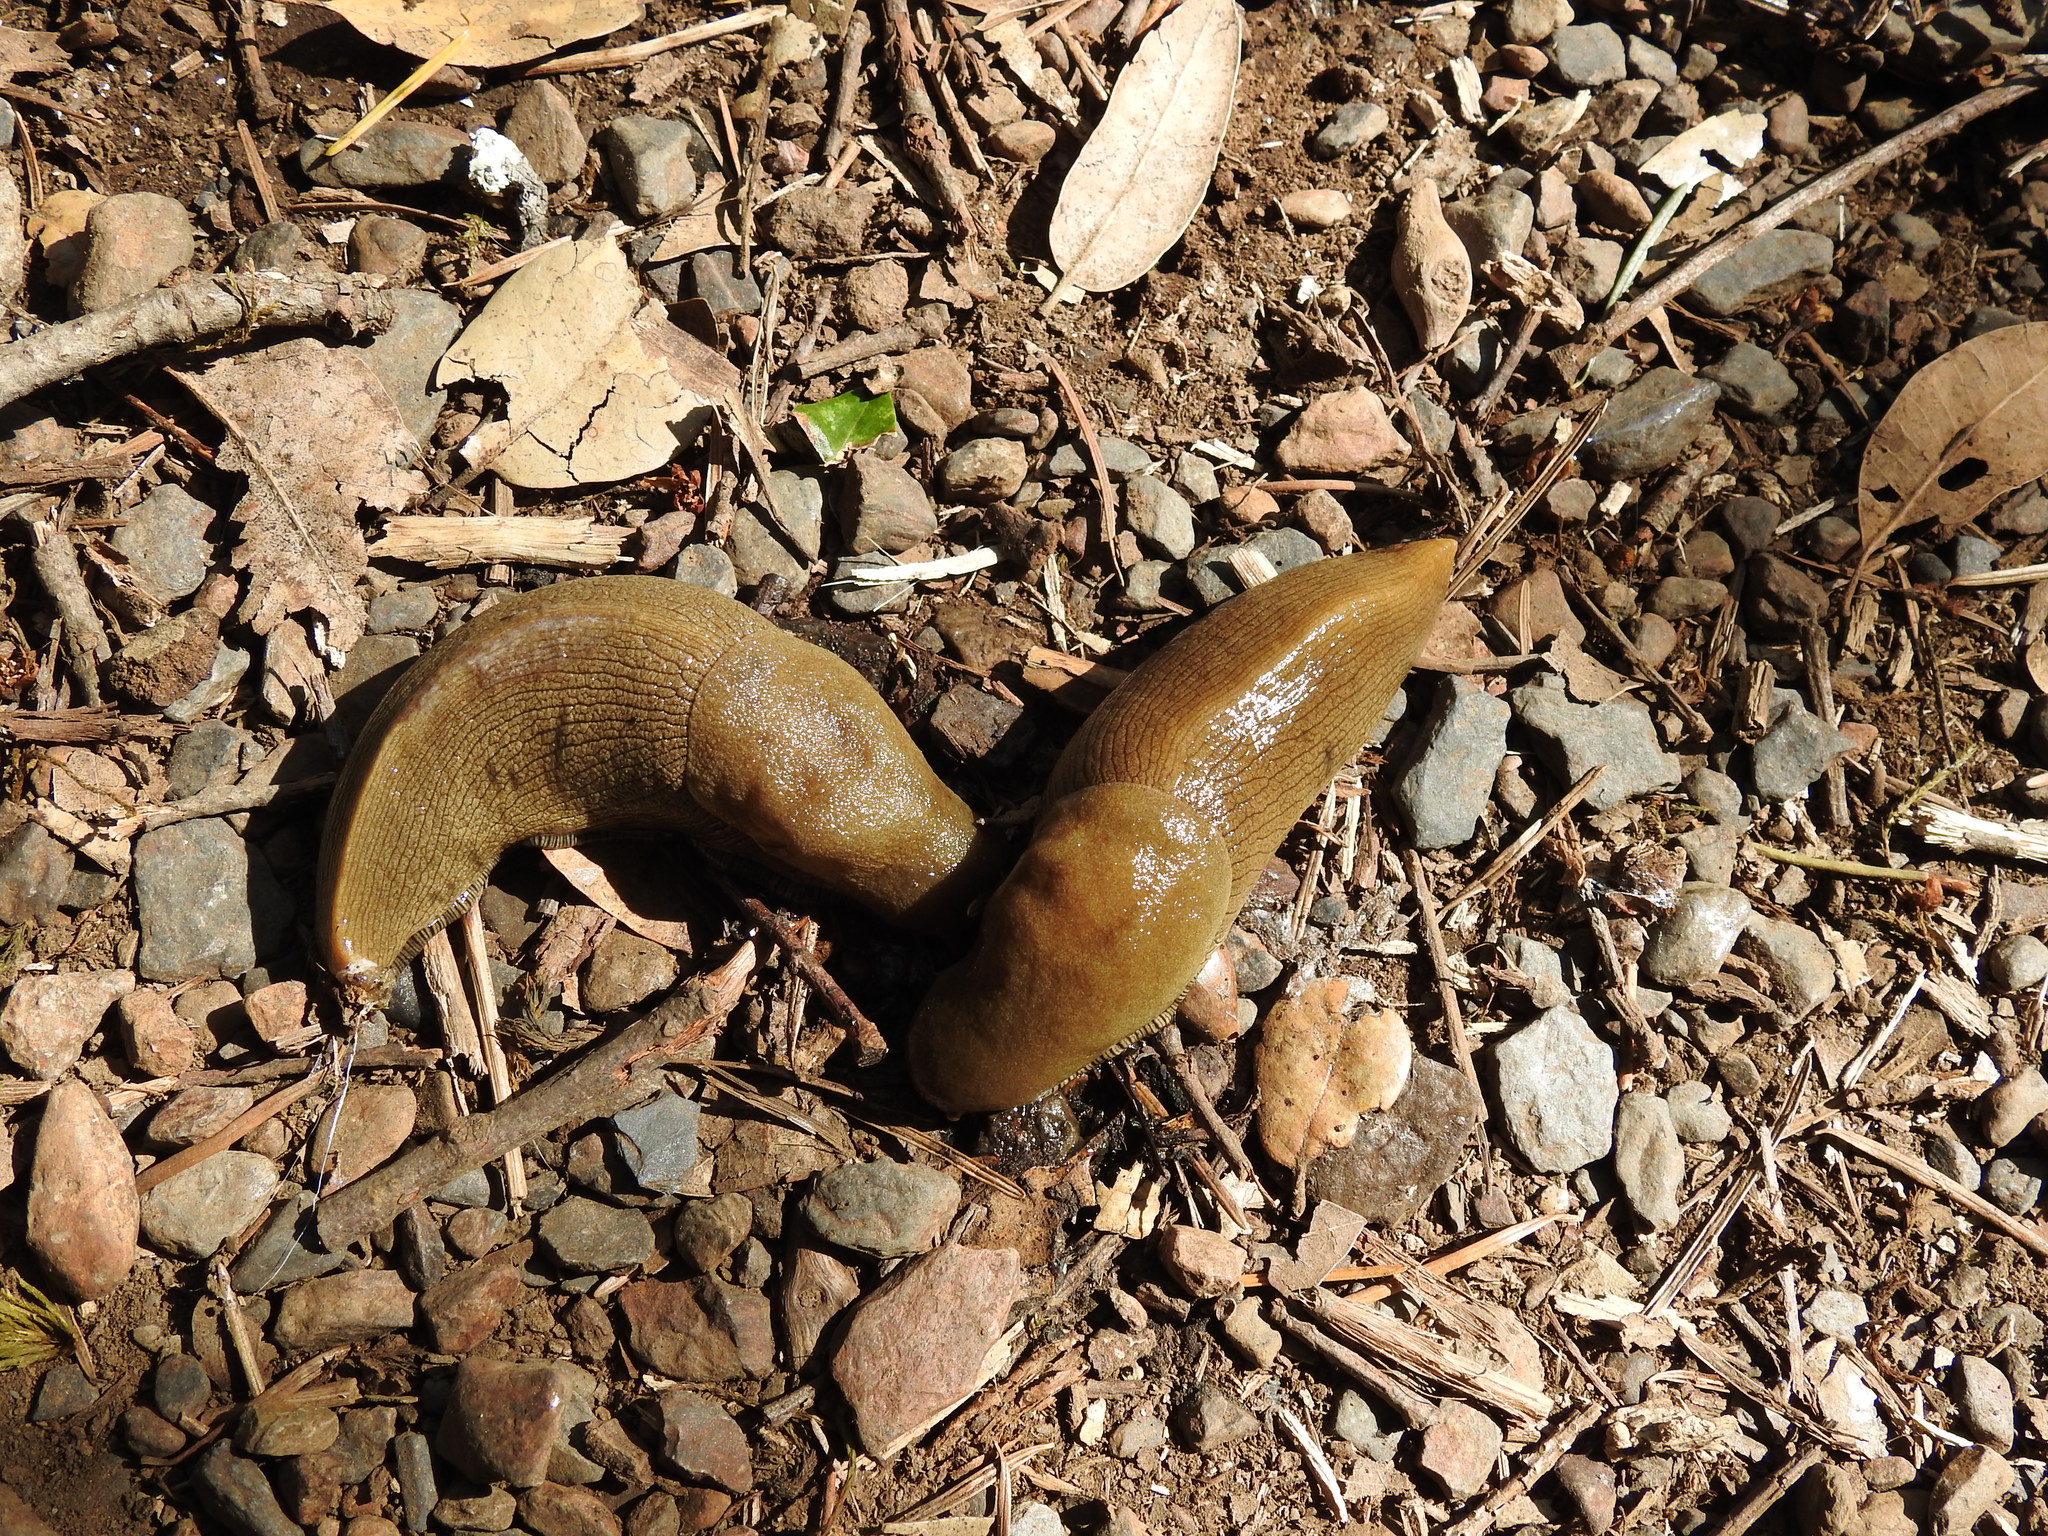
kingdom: Animalia
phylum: Mollusca
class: Gastropoda
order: Stylommatophora
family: Ariolimacidae
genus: Ariolimax
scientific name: Ariolimax buttoni
